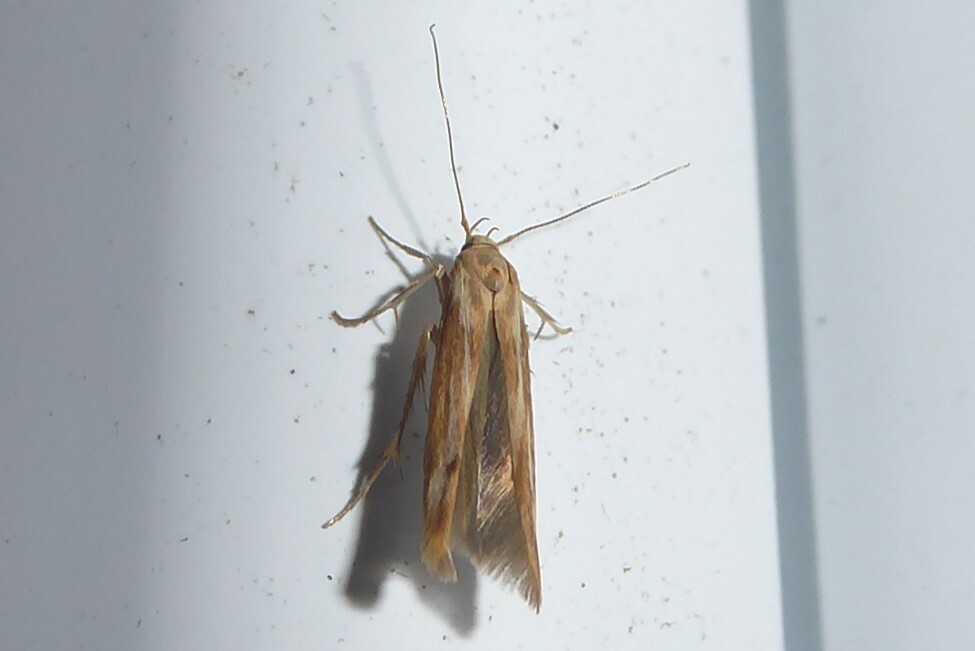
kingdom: Animalia
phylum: Arthropoda
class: Insecta
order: Lepidoptera
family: Stathmopodidae
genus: Stathmopoda
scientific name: Stathmopoda aposema
